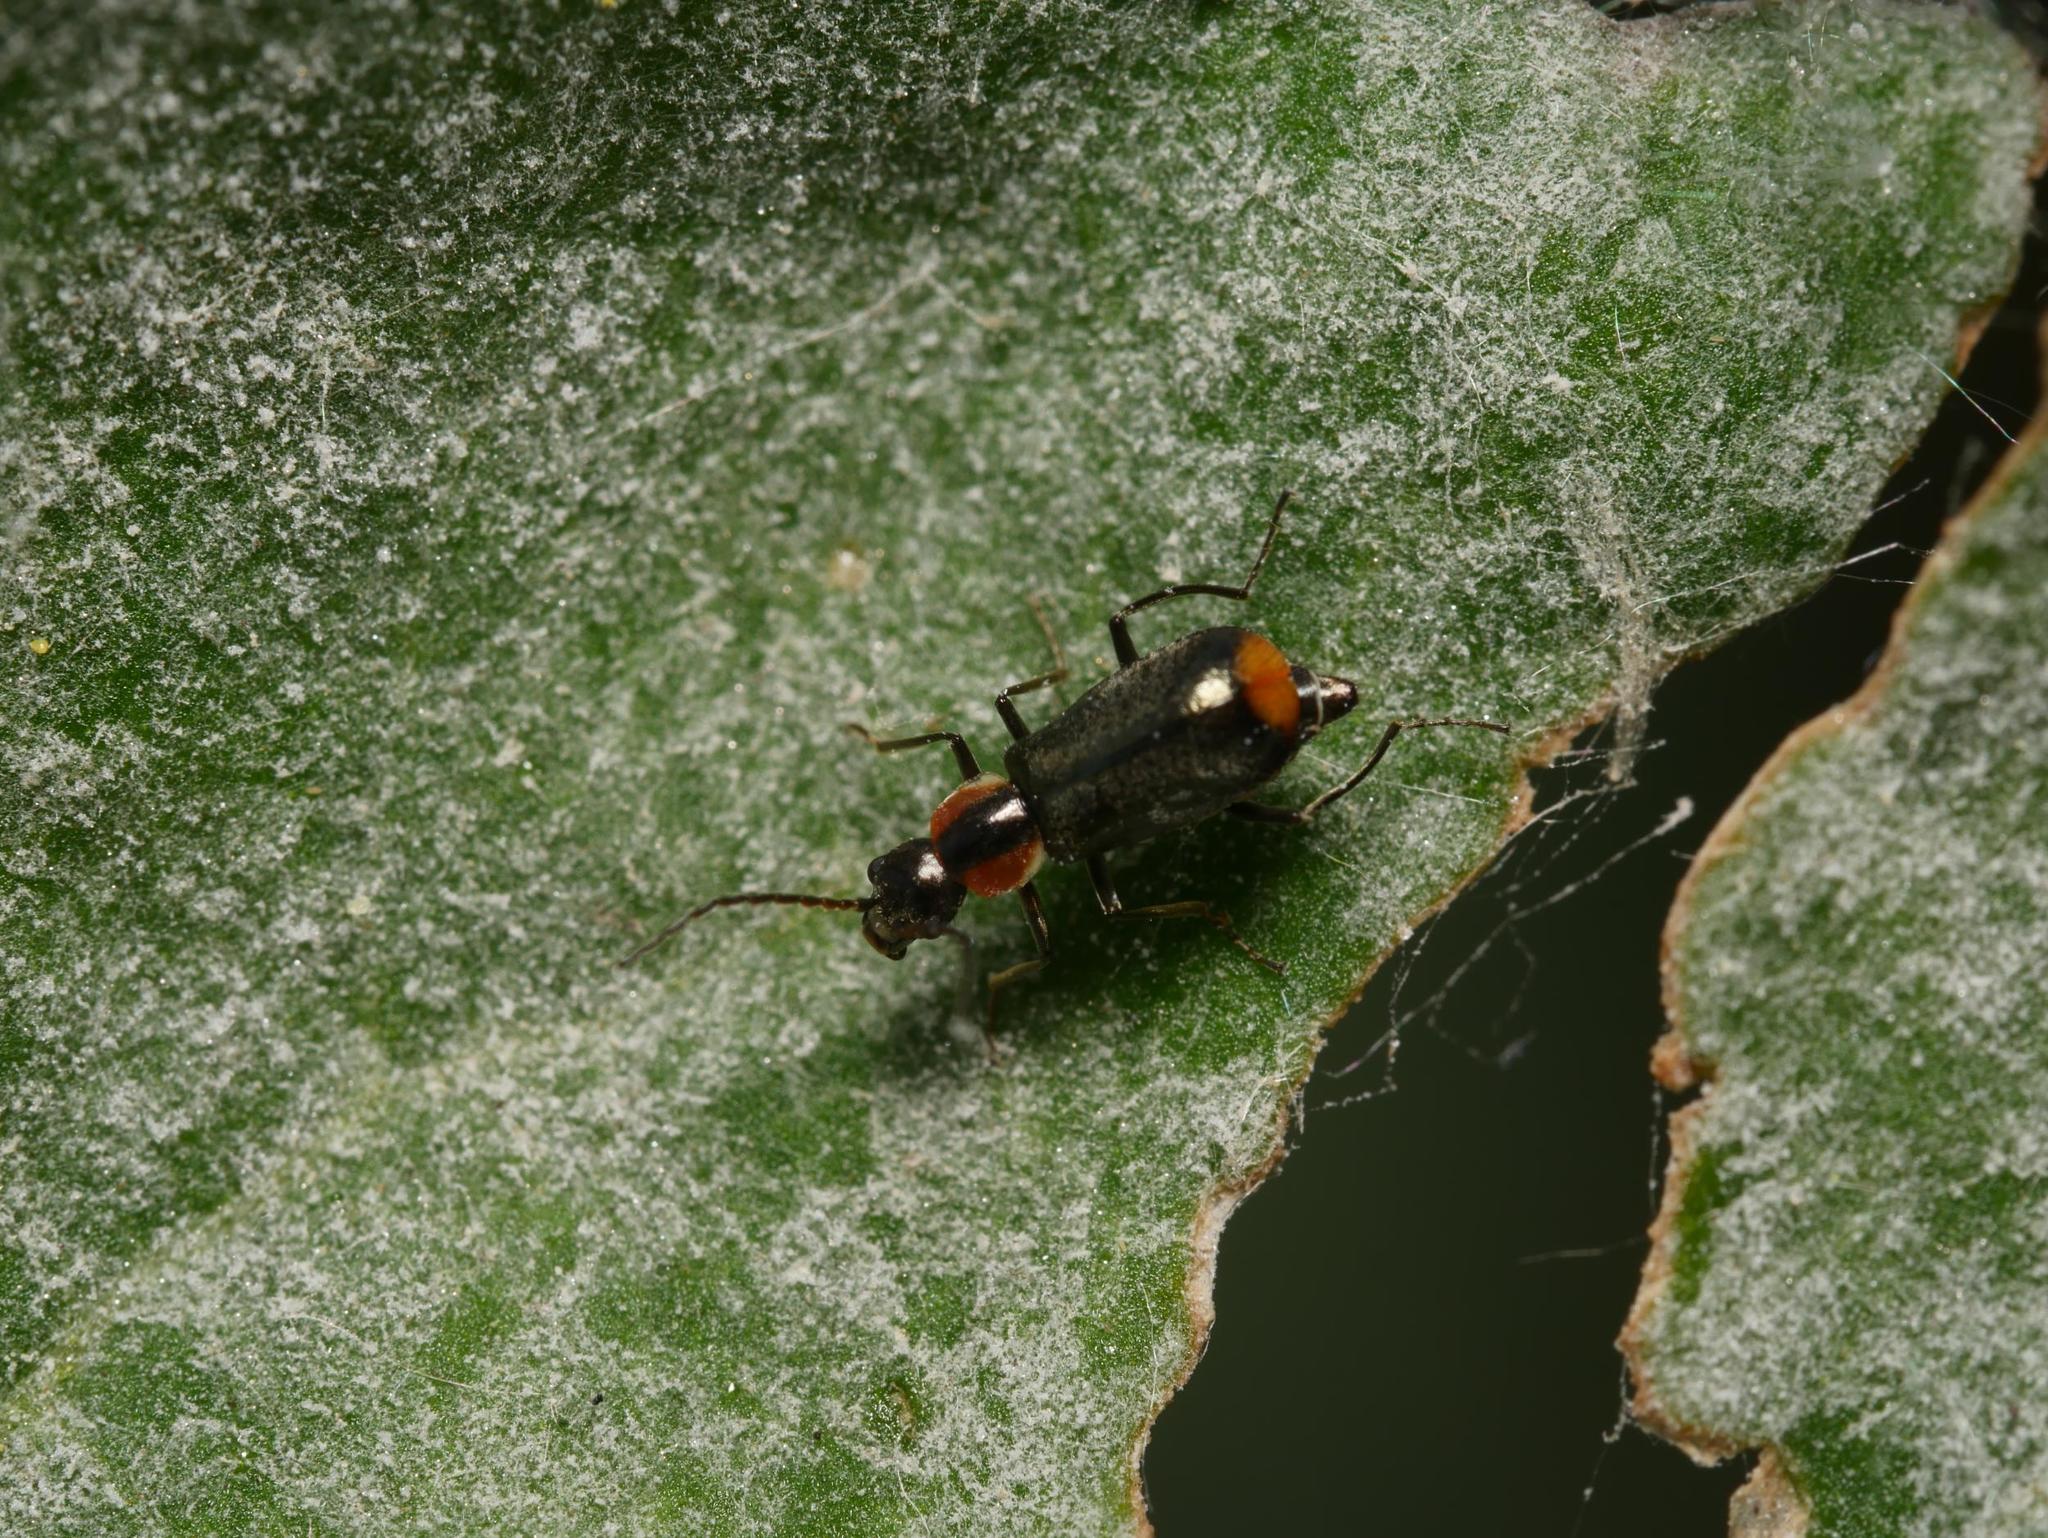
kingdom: Animalia
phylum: Arthropoda
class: Insecta
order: Coleoptera
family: Melyridae
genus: Axinotarsus
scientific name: Axinotarsus pulicarius
